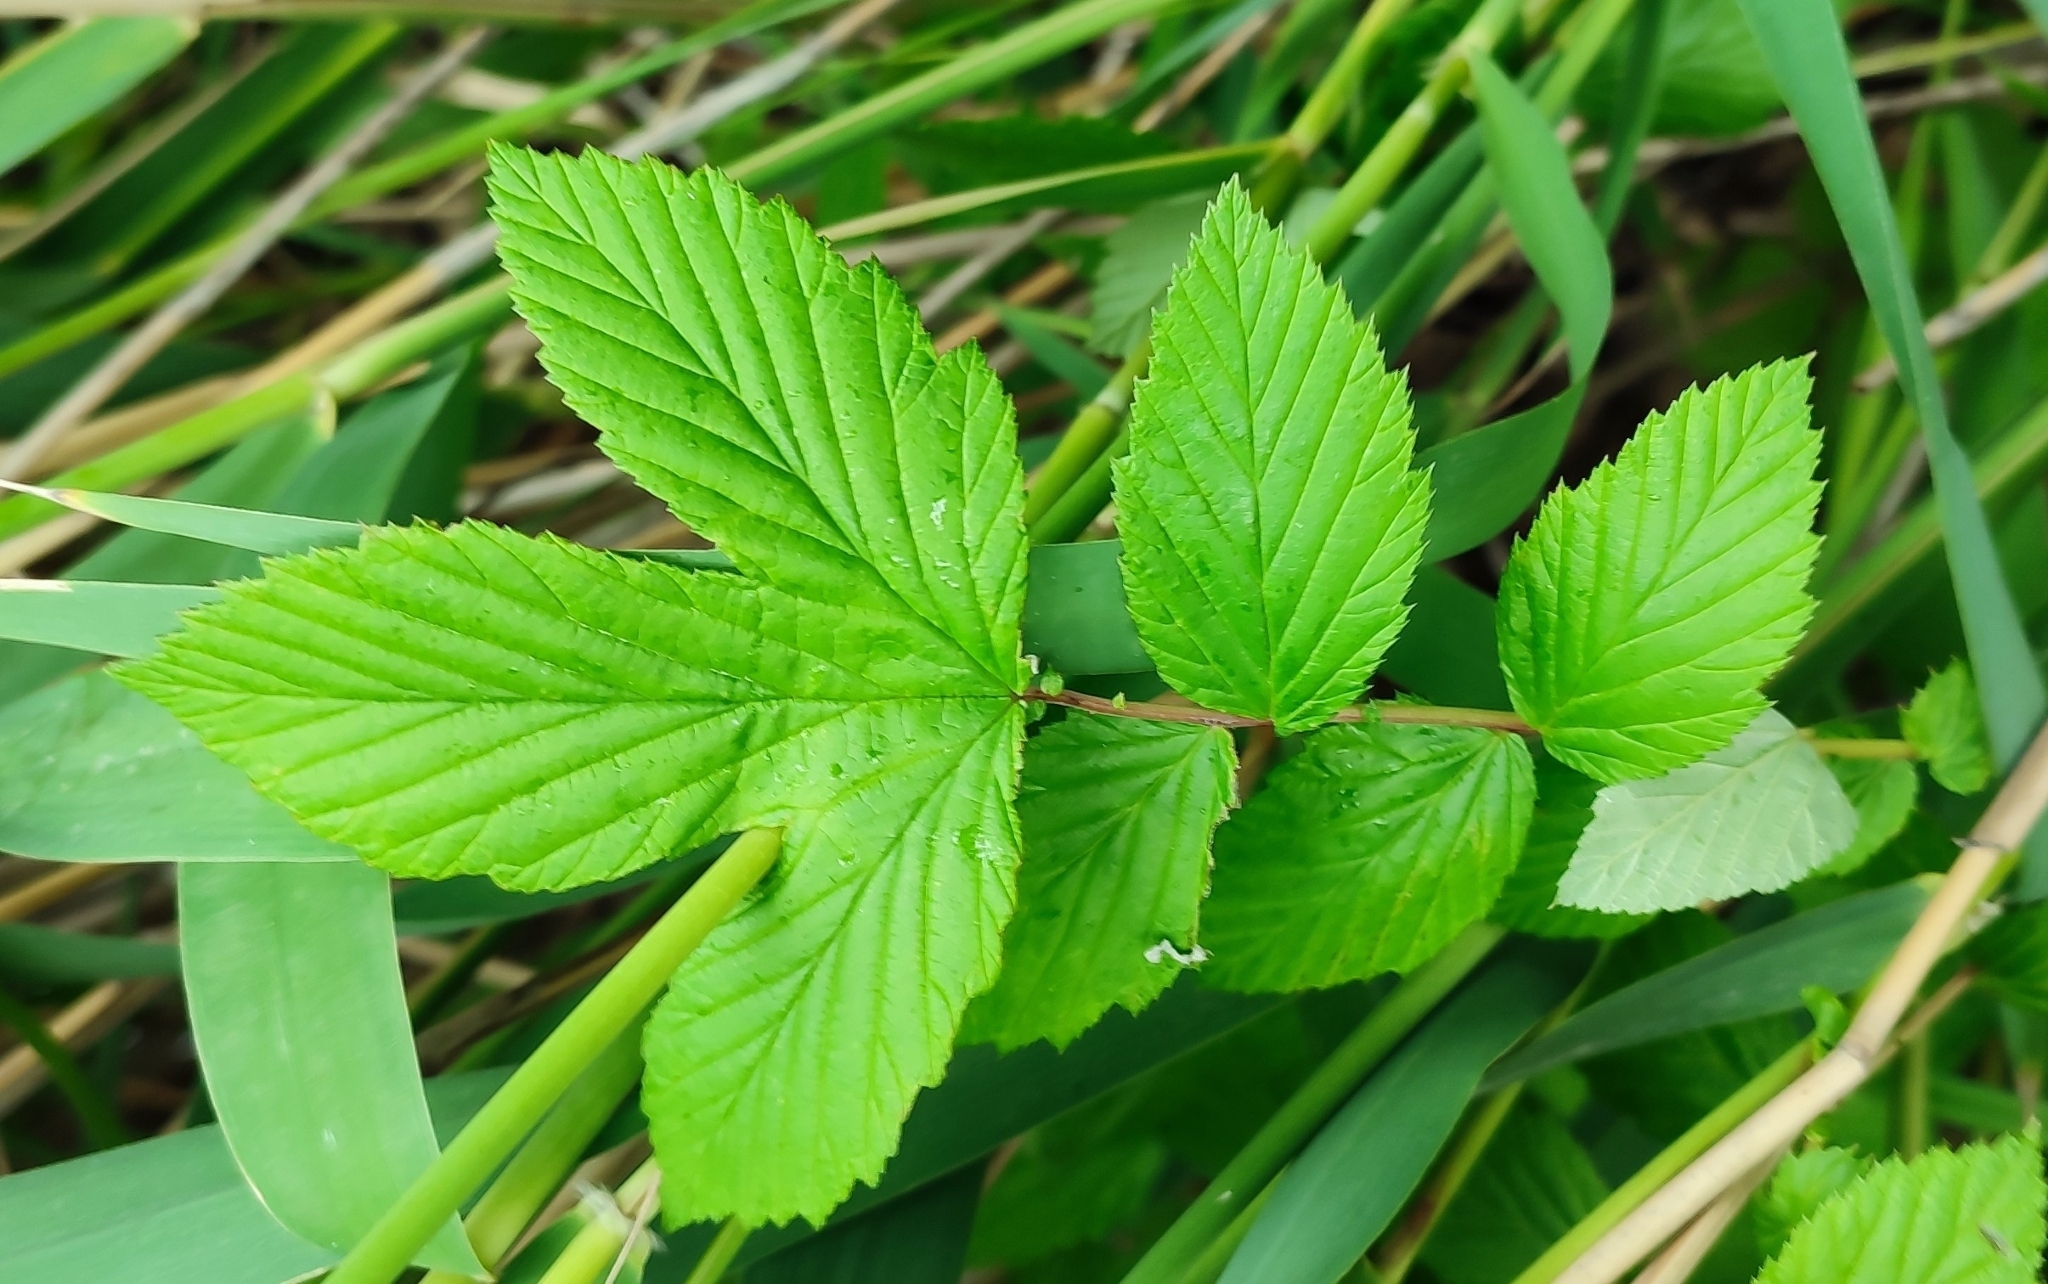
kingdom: Plantae
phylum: Tracheophyta
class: Magnoliopsida
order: Rosales
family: Rosaceae
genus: Filipendula
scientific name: Filipendula ulmaria
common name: Meadowsweet
